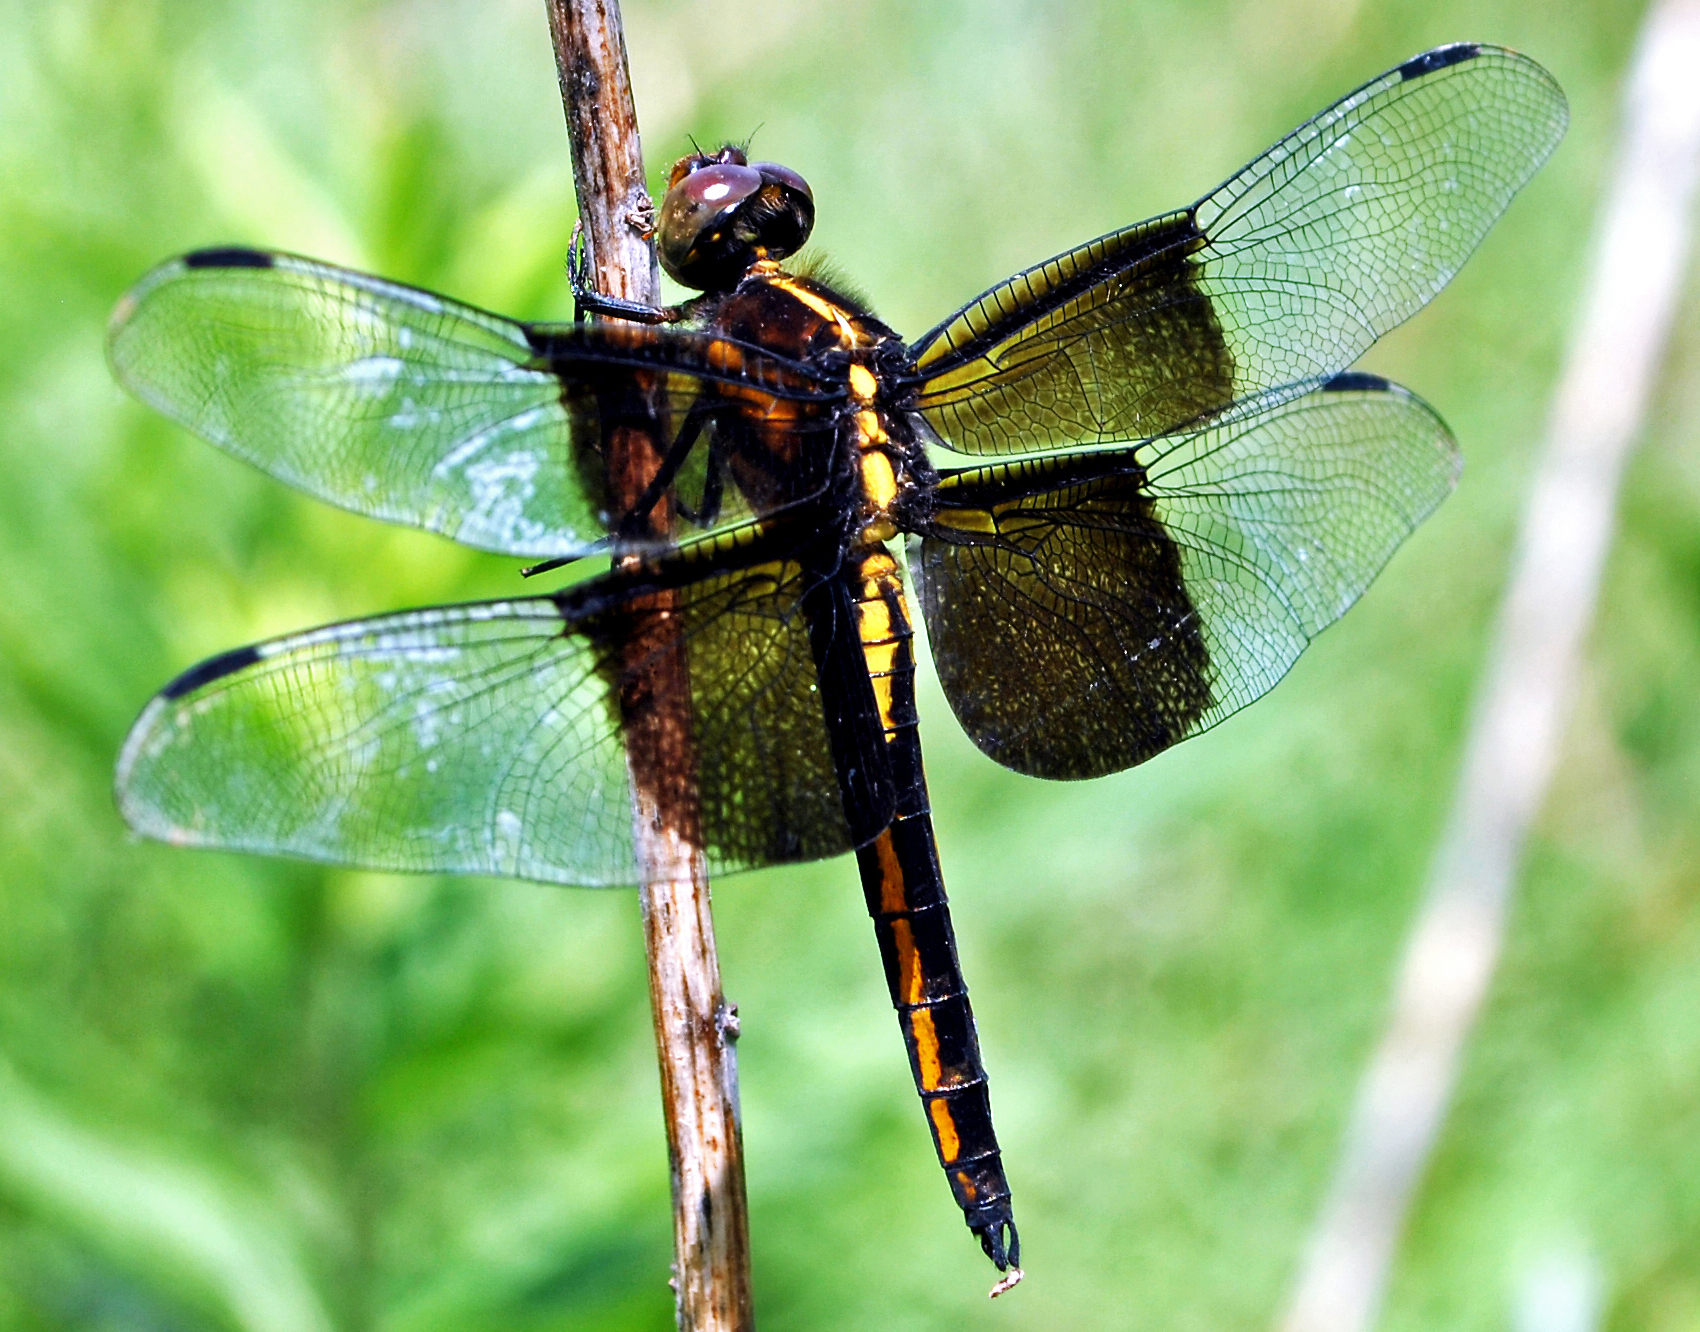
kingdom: Animalia
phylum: Arthropoda
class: Insecta
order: Odonata
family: Libellulidae
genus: Libellula
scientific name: Libellula luctuosa
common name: Widow skimmer
